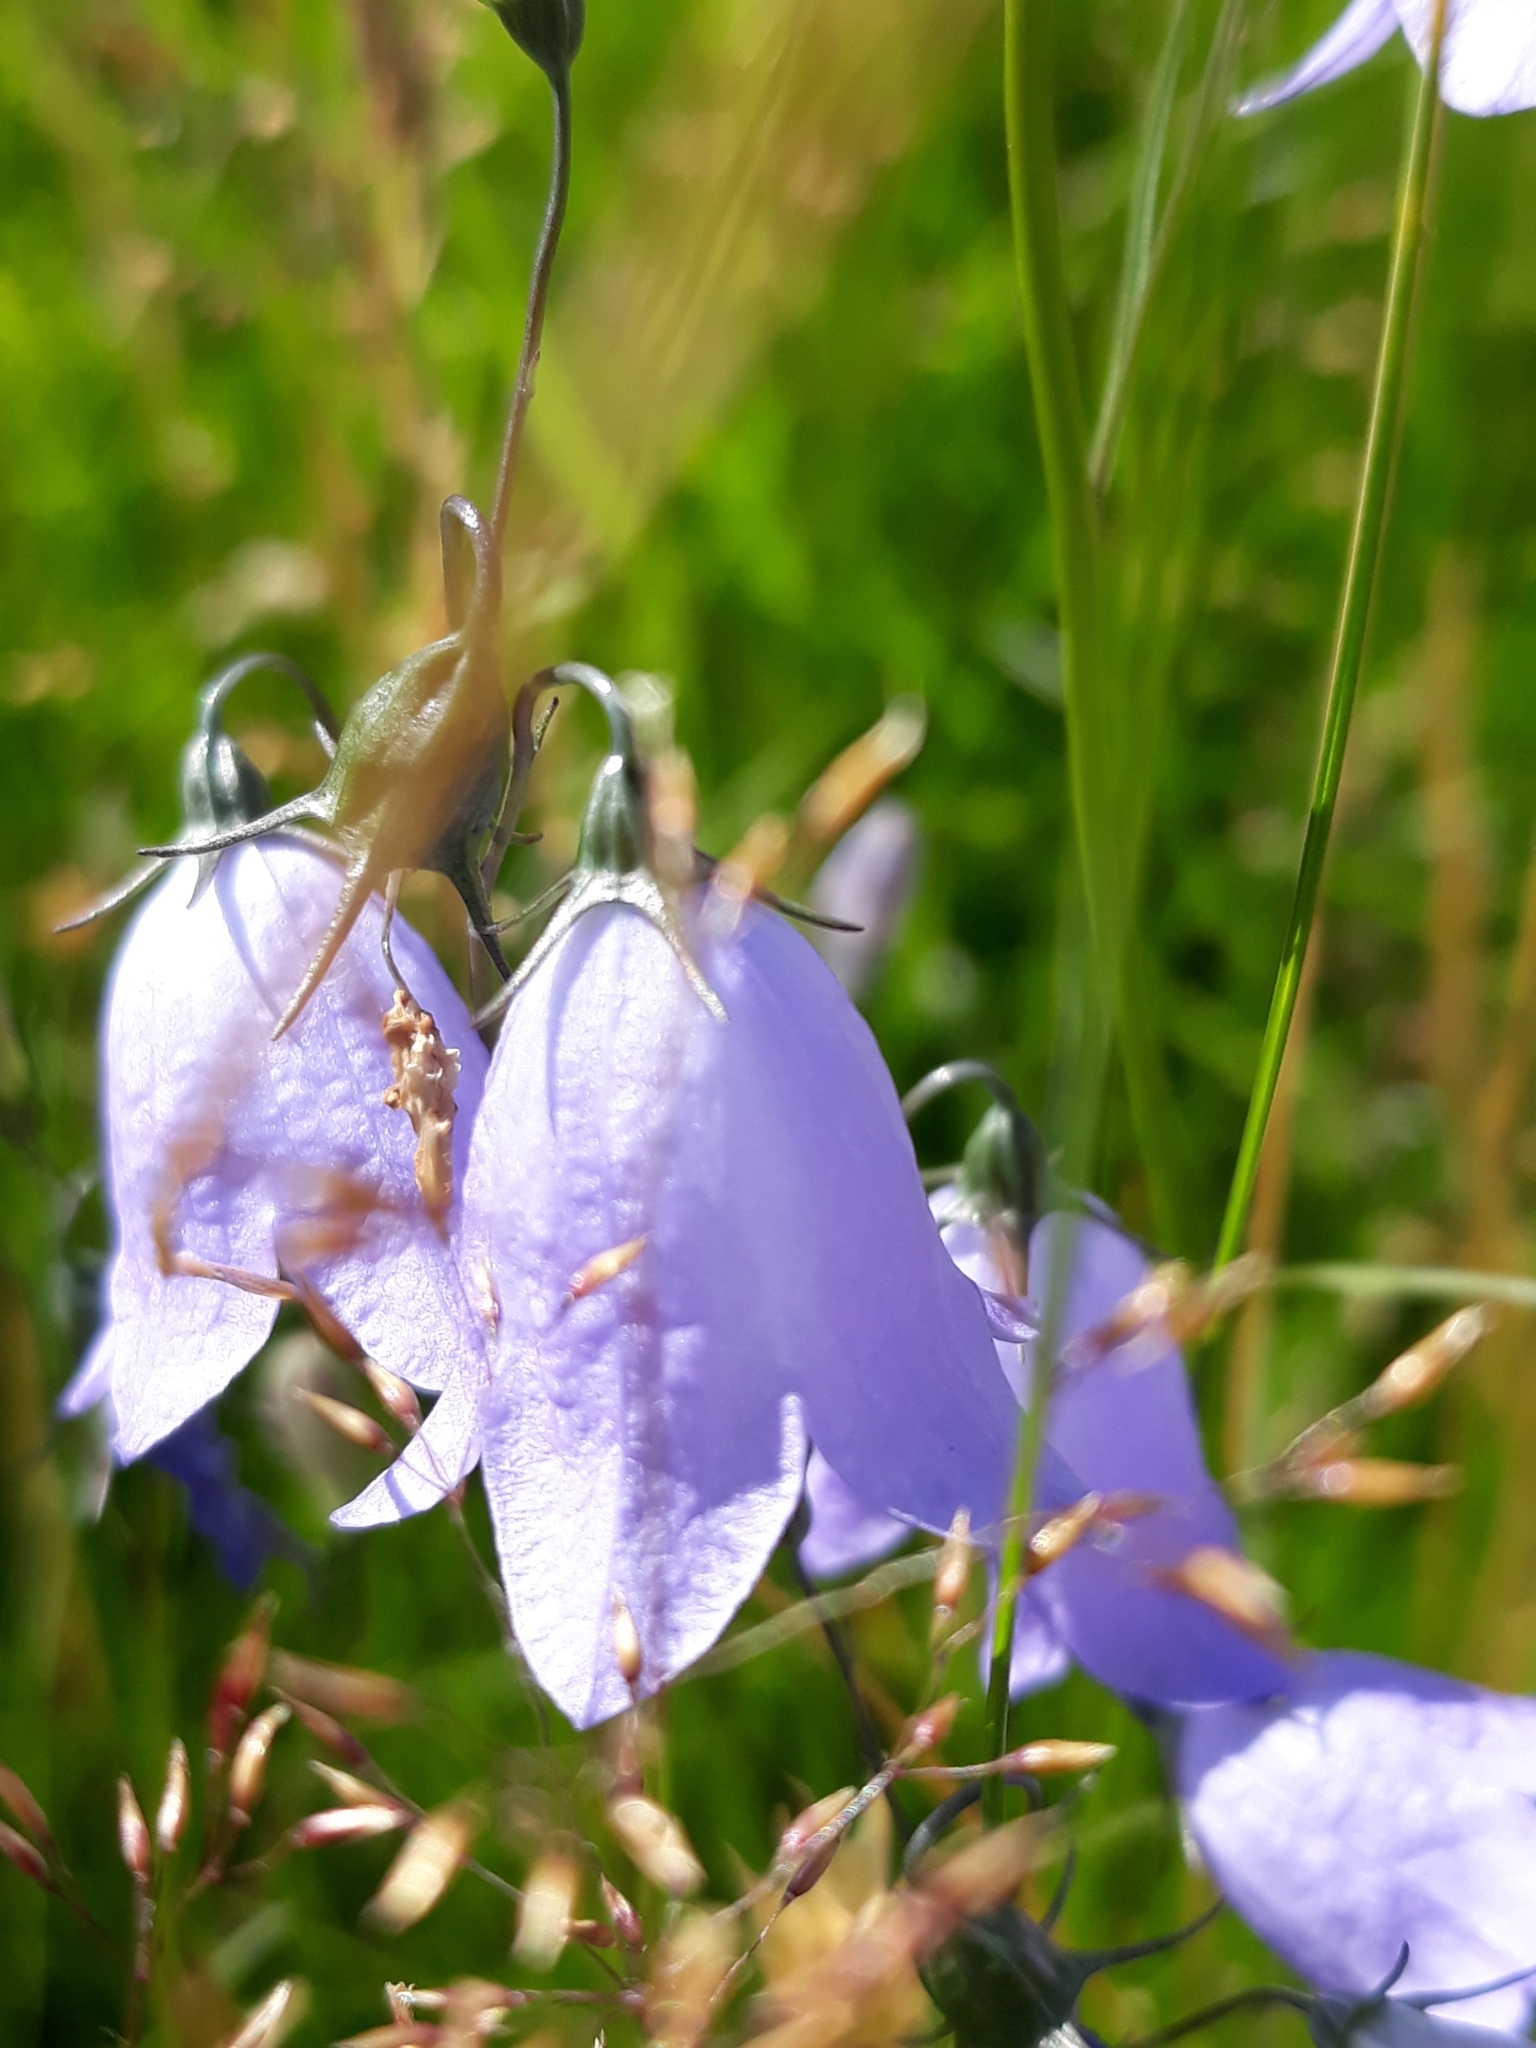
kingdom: Plantae
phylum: Tracheophyta
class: Magnoliopsida
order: Asterales
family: Campanulaceae
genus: Campanula
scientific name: Campanula rotundifolia
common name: Harebell
